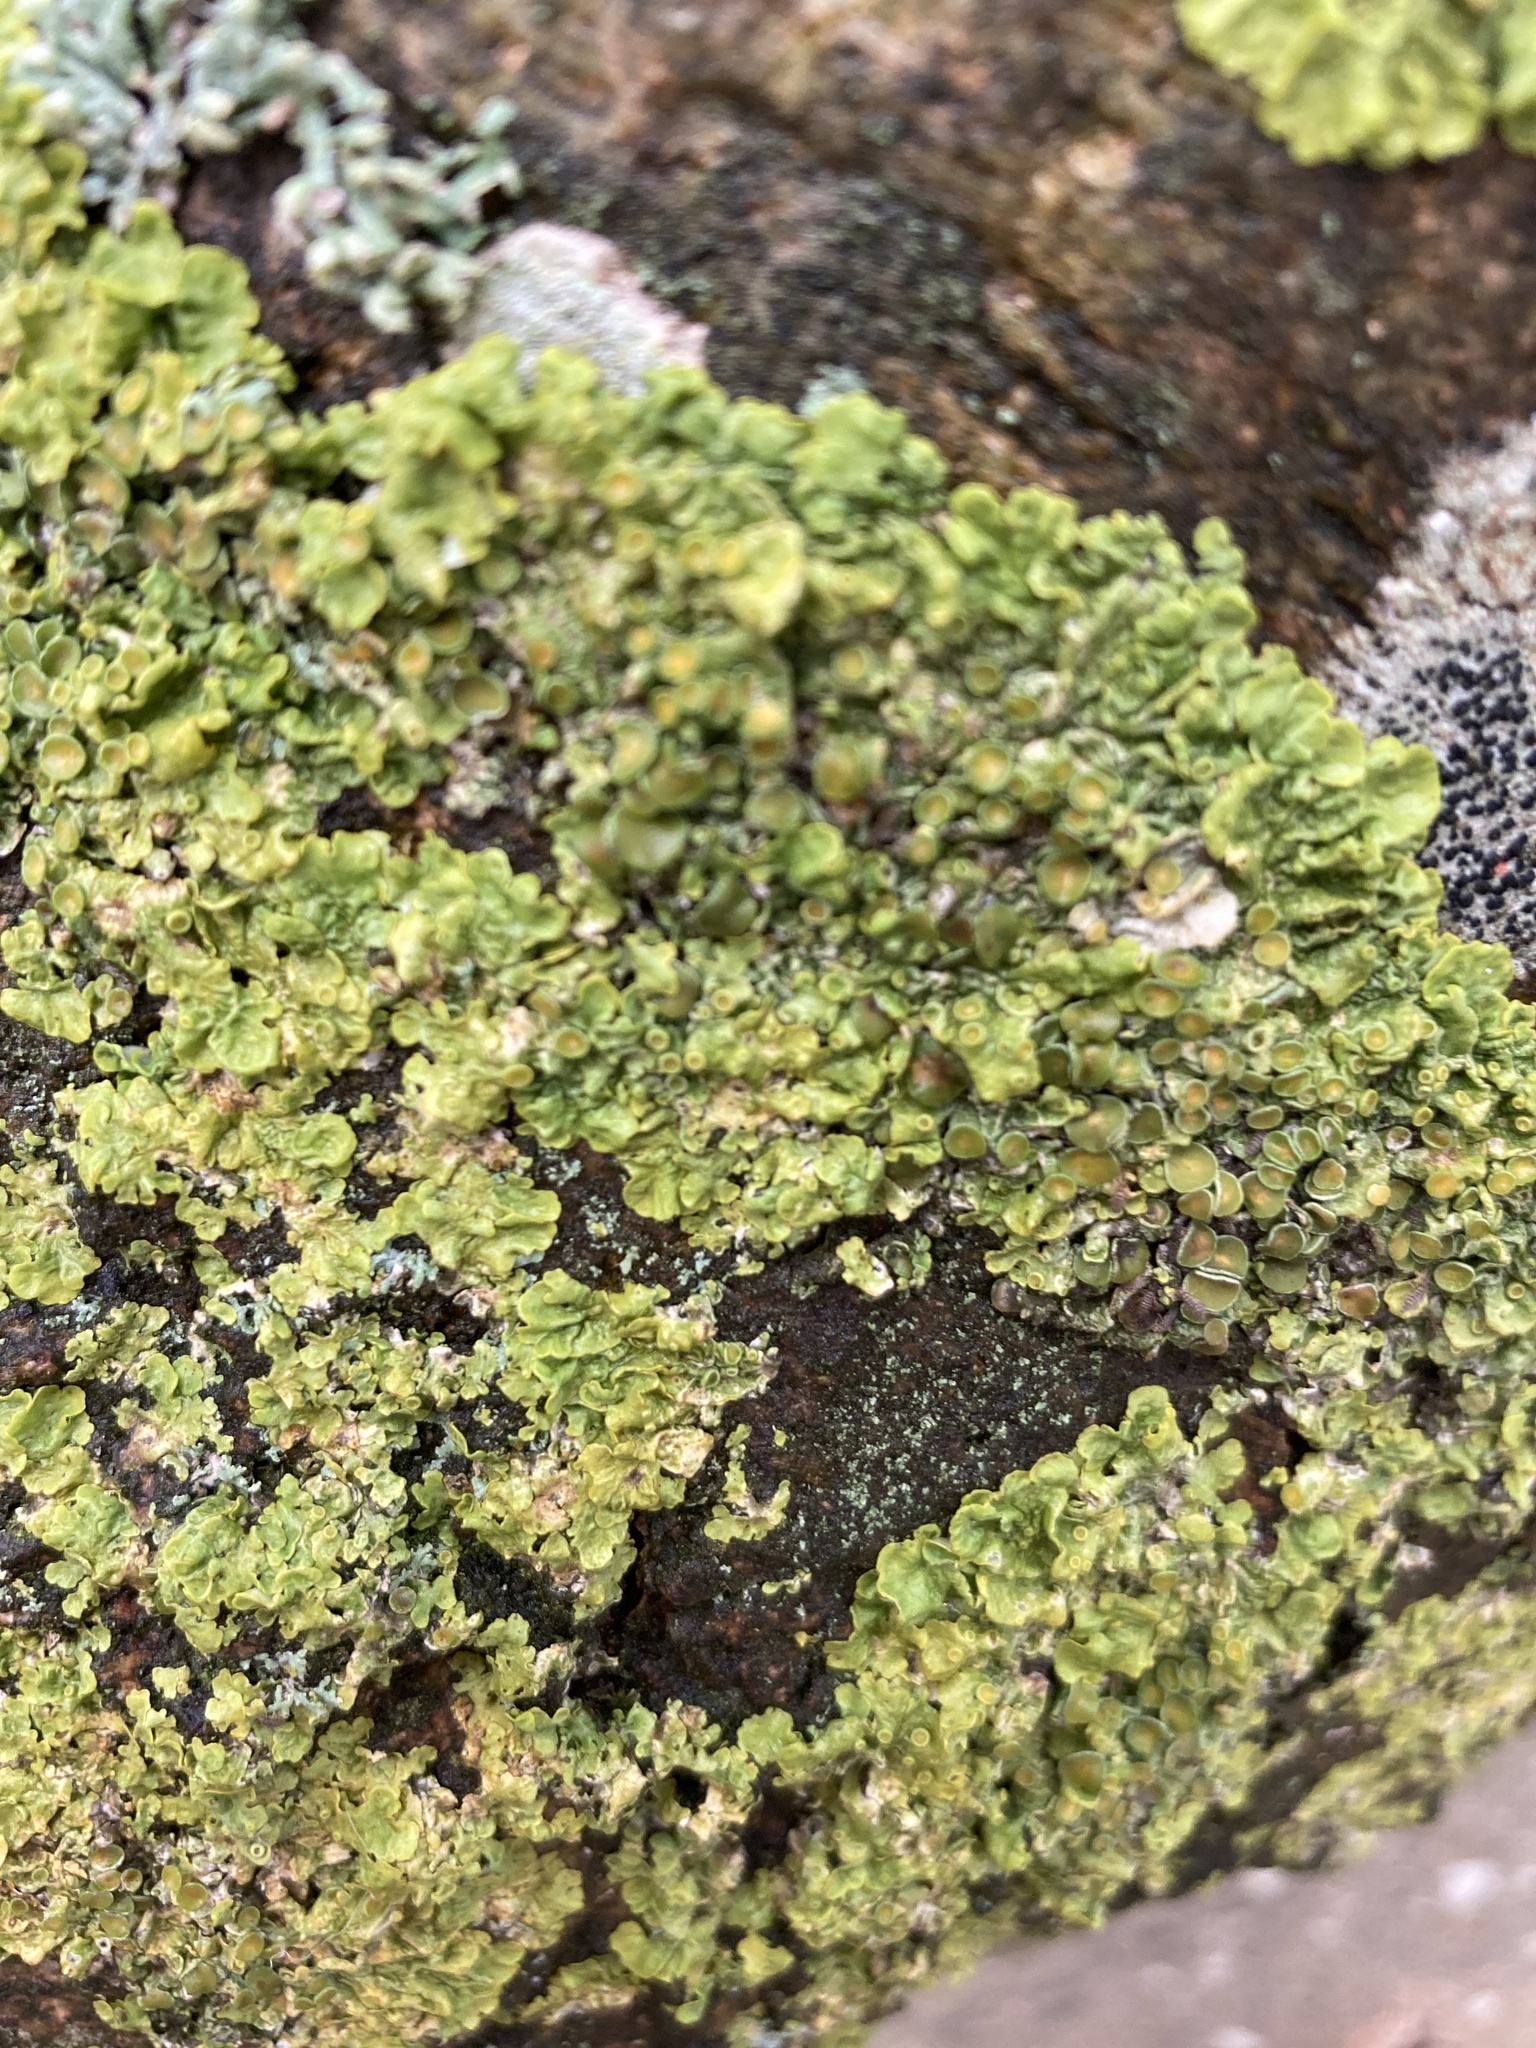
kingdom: Fungi
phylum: Ascomycota
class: Lecanoromycetes
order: Teloschistales
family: Teloschistaceae
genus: Xanthoria
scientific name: Xanthoria parietina
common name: Common orange lichen
